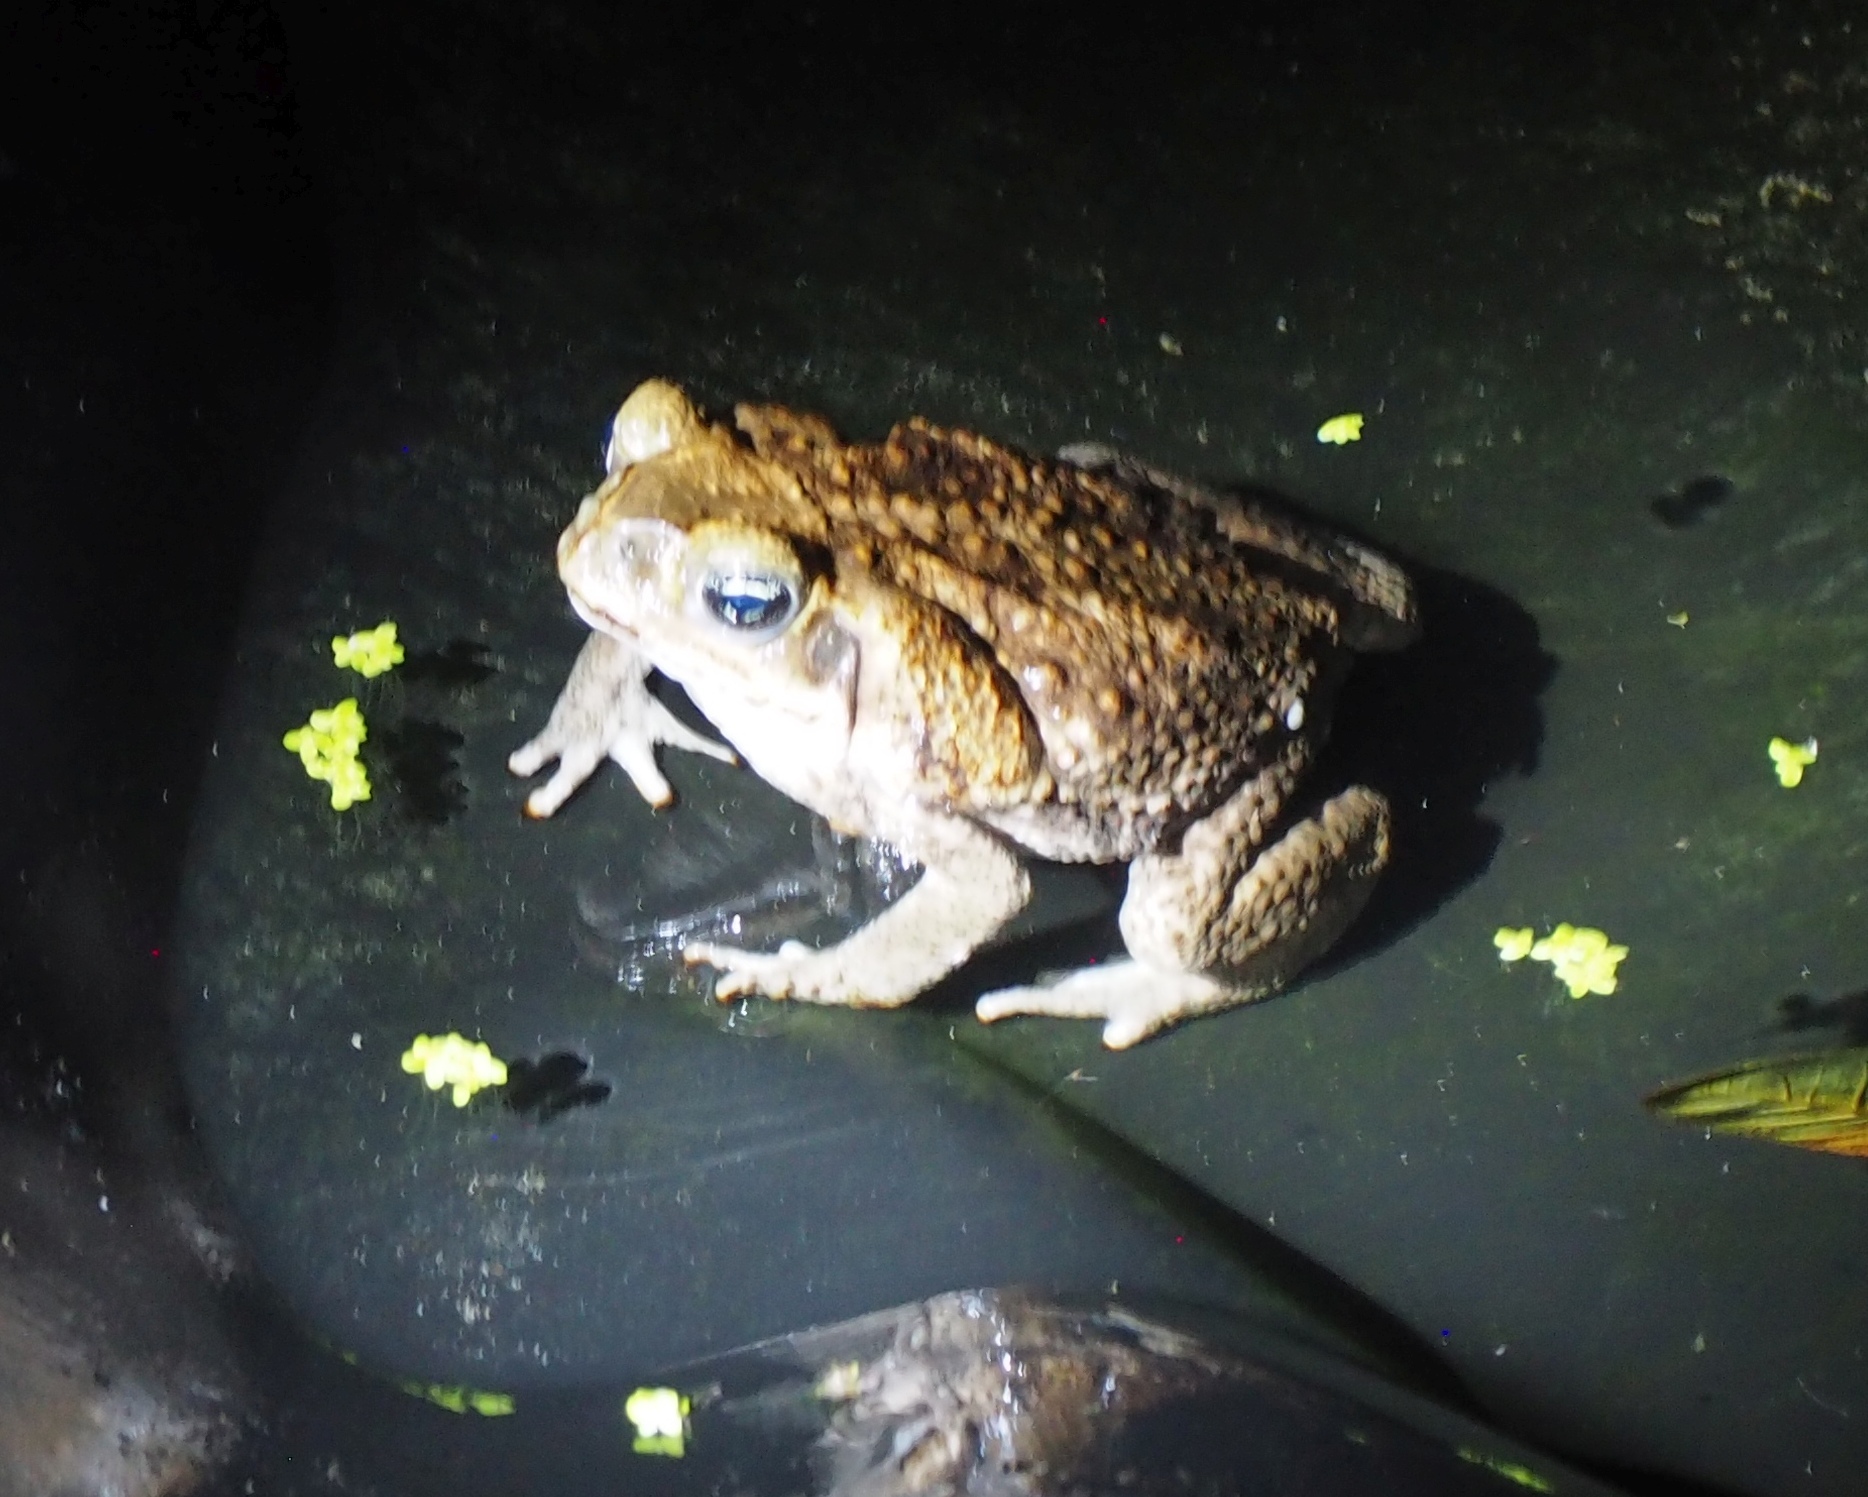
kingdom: Animalia
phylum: Chordata
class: Amphibia
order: Anura
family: Bufonidae
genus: Rhinella
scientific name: Rhinella horribilis
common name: Mesoamerican cane toad
